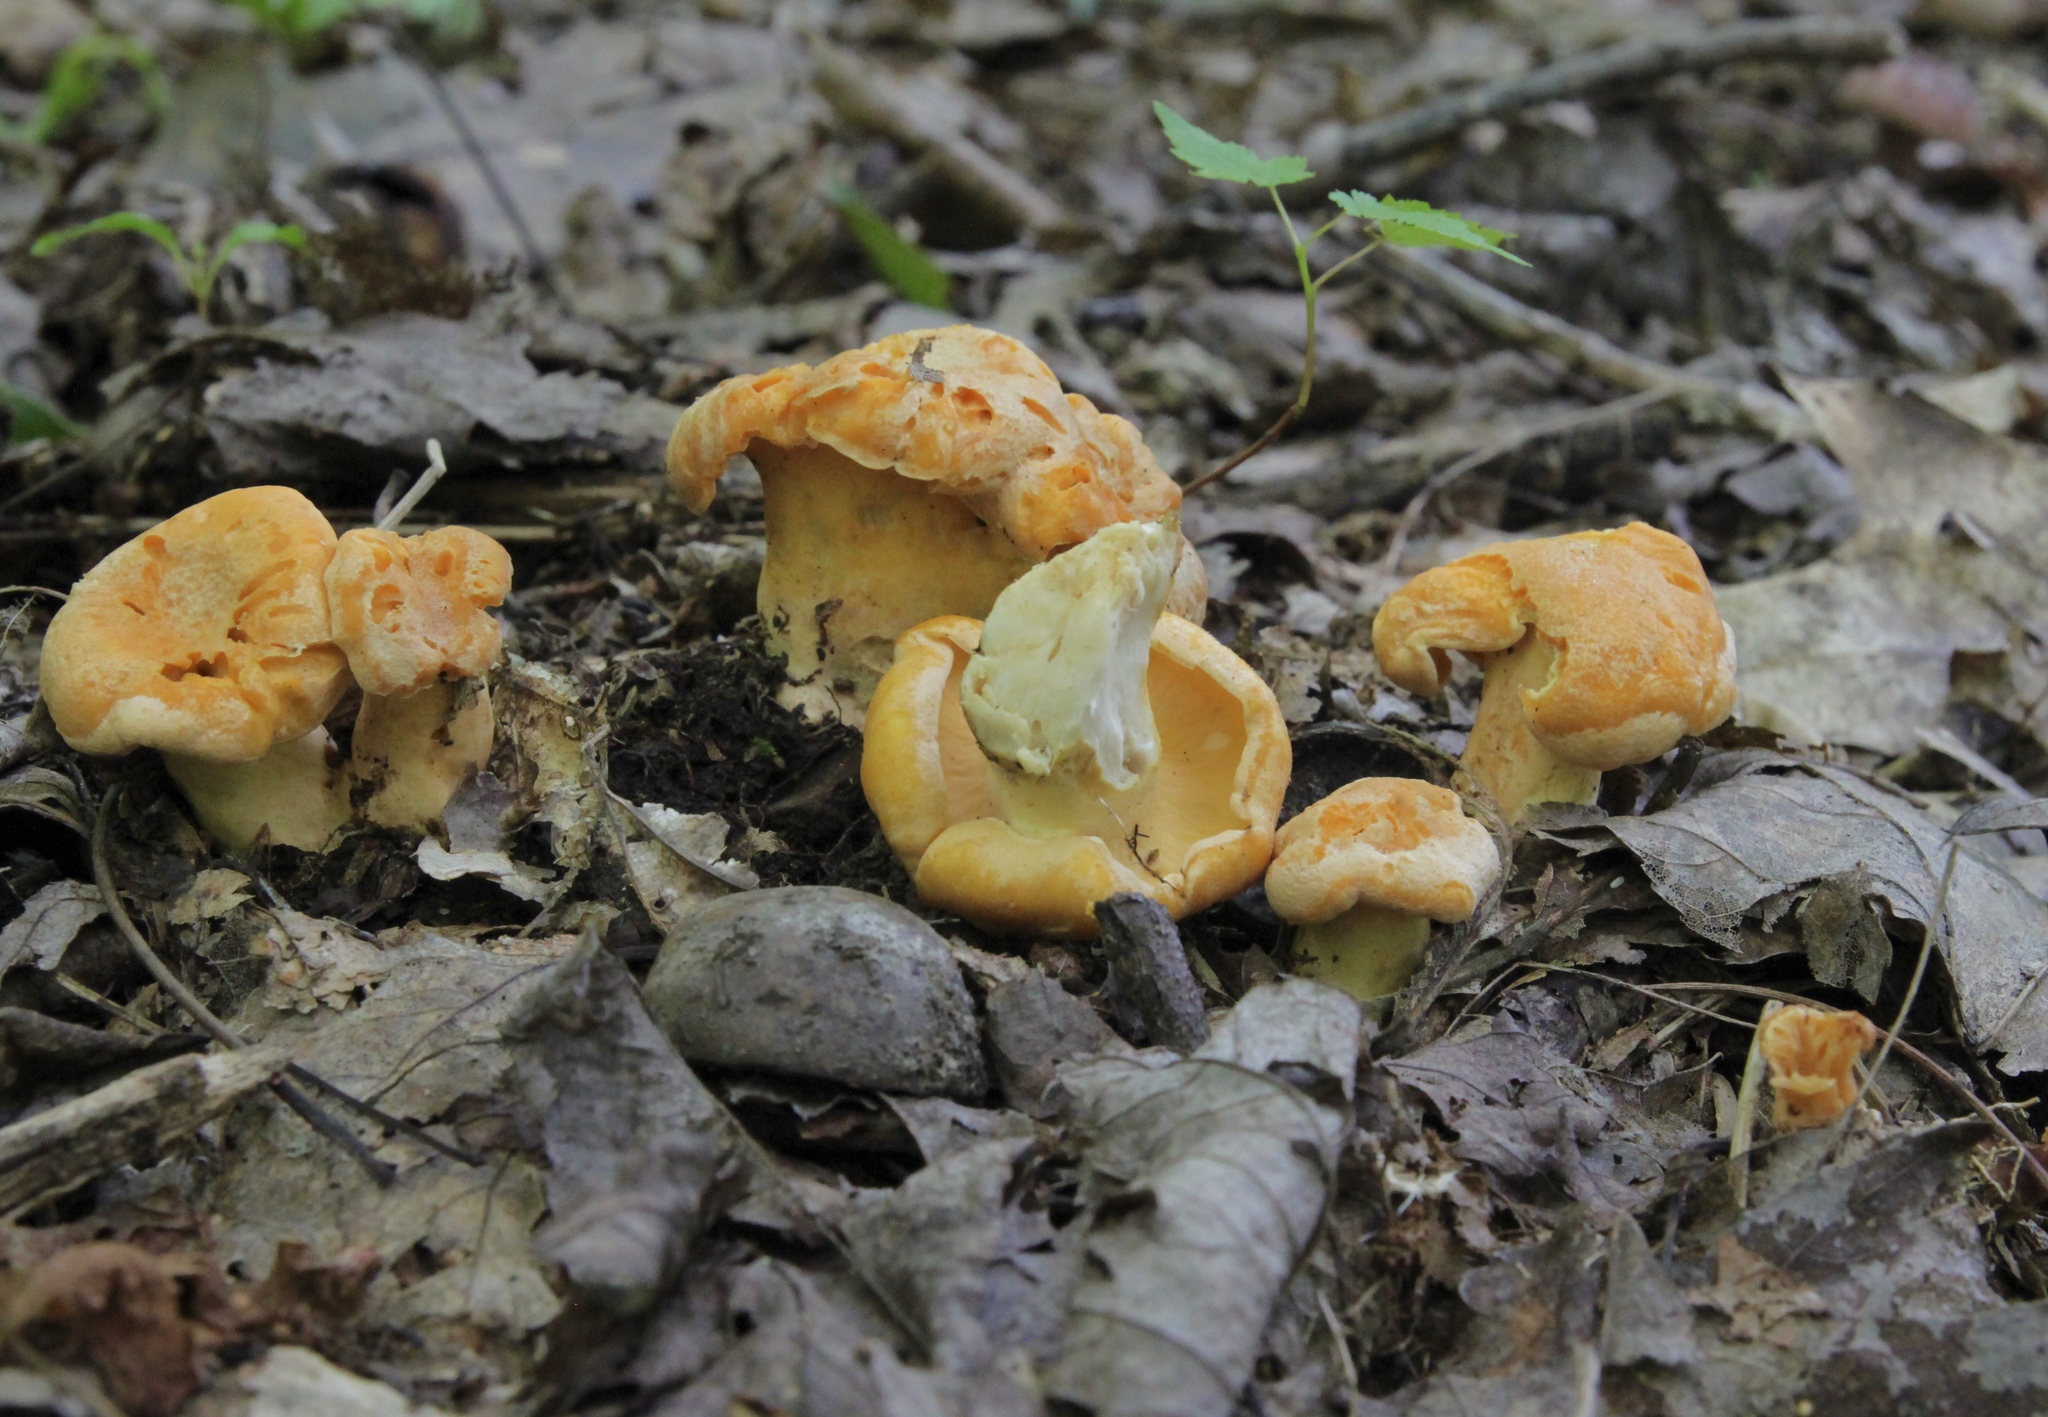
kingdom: Fungi
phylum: Basidiomycota
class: Agaricomycetes
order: Cantharellales
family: Hydnaceae
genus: Cantharellus
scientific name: Cantharellus lateritius
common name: Smooth chanterelle
